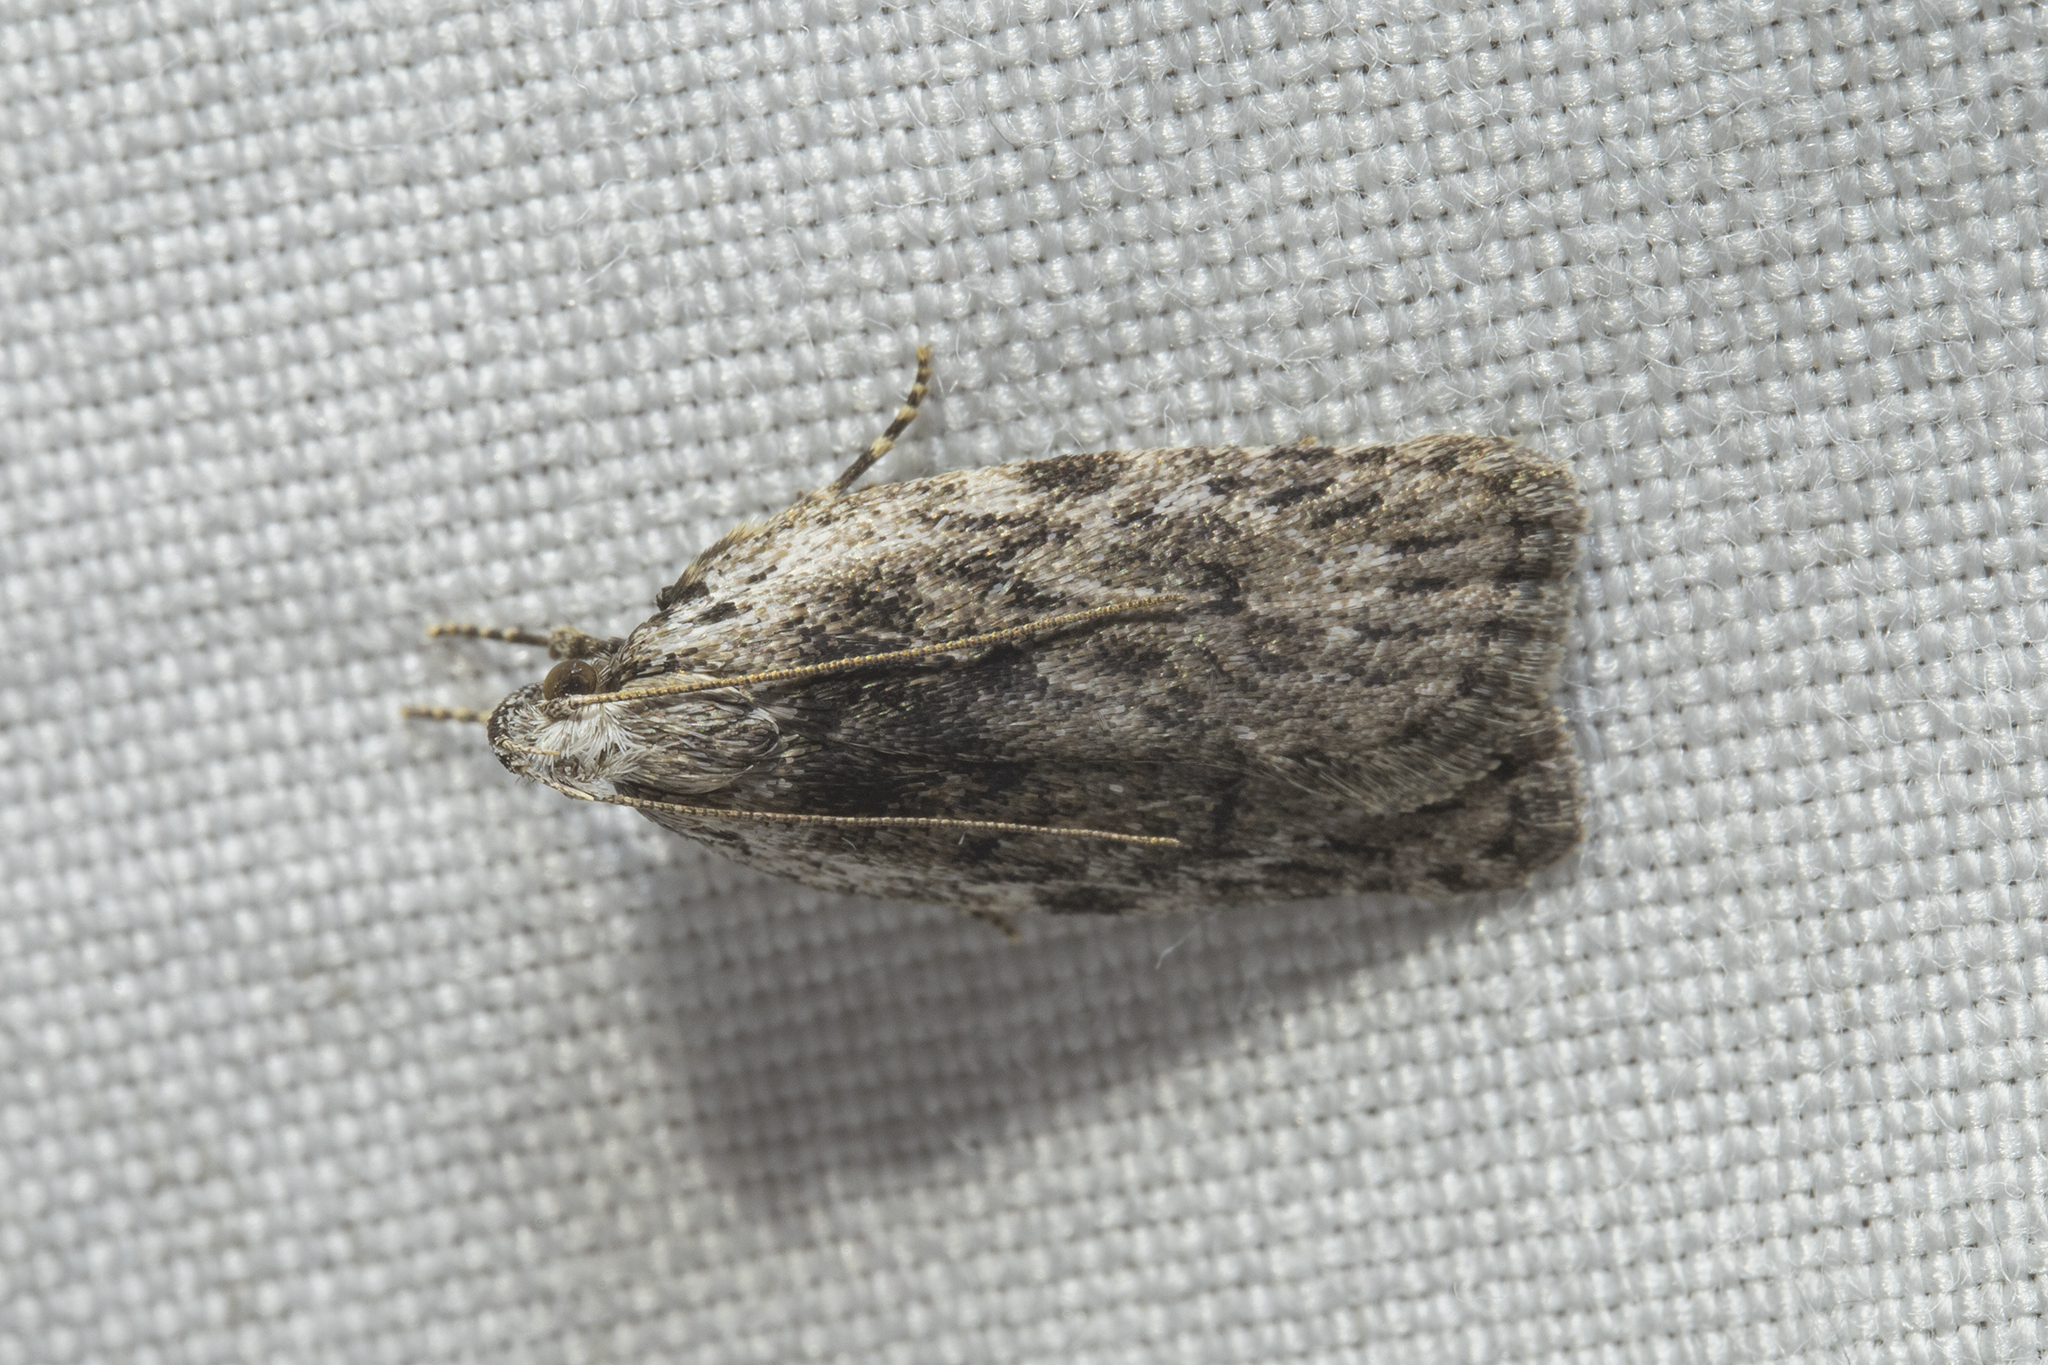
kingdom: Animalia
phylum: Arthropoda
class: Insecta
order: Lepidoptera
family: Depressariidae
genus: Phaeosaces
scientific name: Phaeosaces compsotypa
